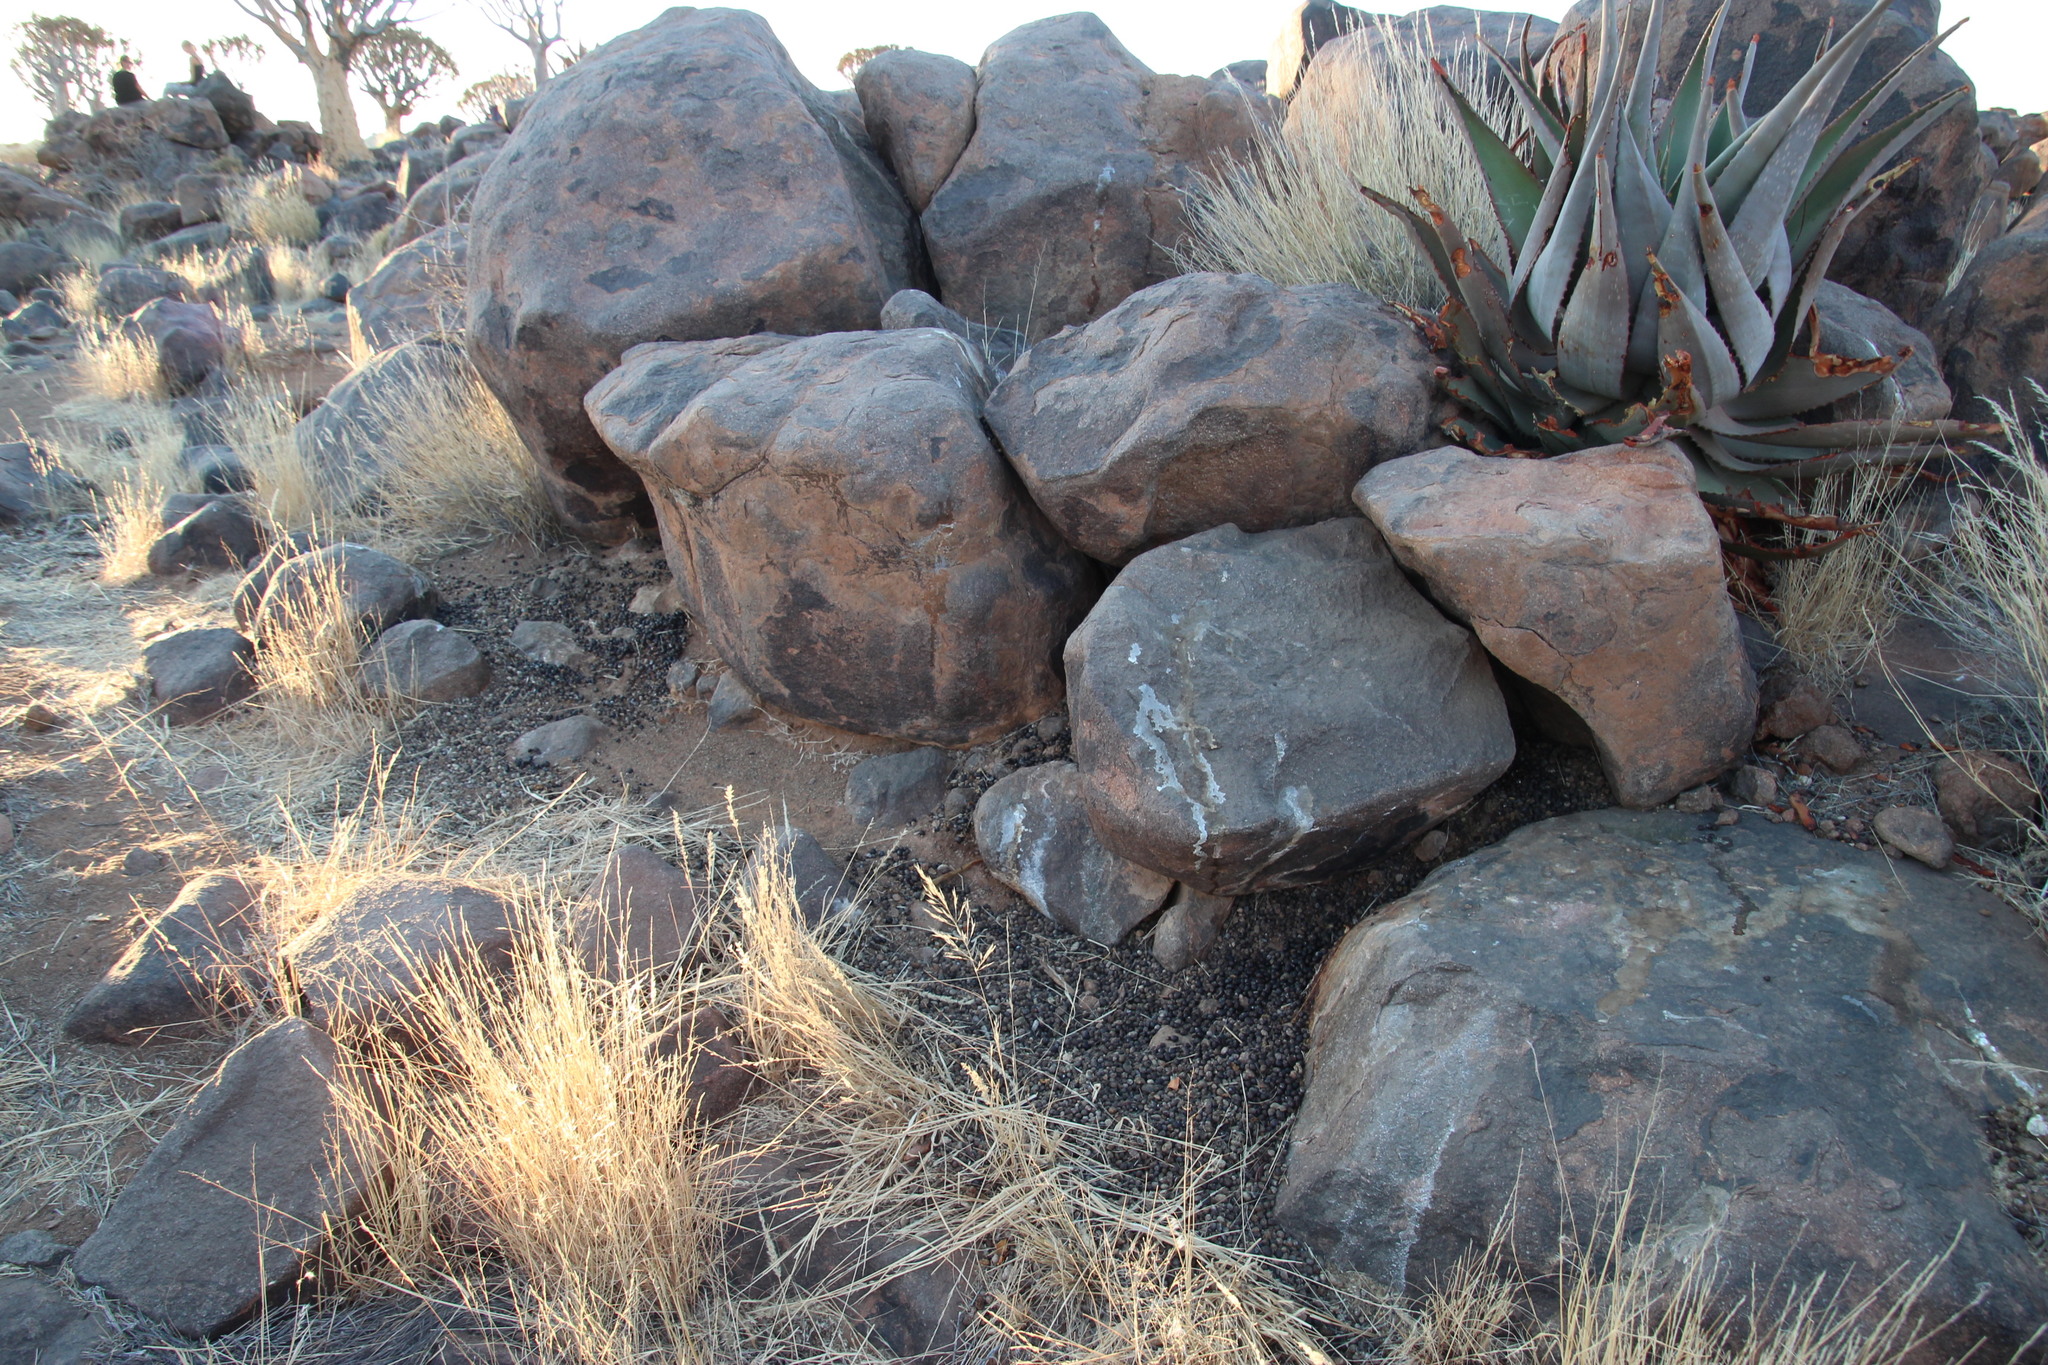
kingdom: Animalia
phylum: Chordata
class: Mammalia
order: Hyracoidea
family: Procaviidae
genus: Procavia
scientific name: Procavia capensis
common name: Rock hyrax
